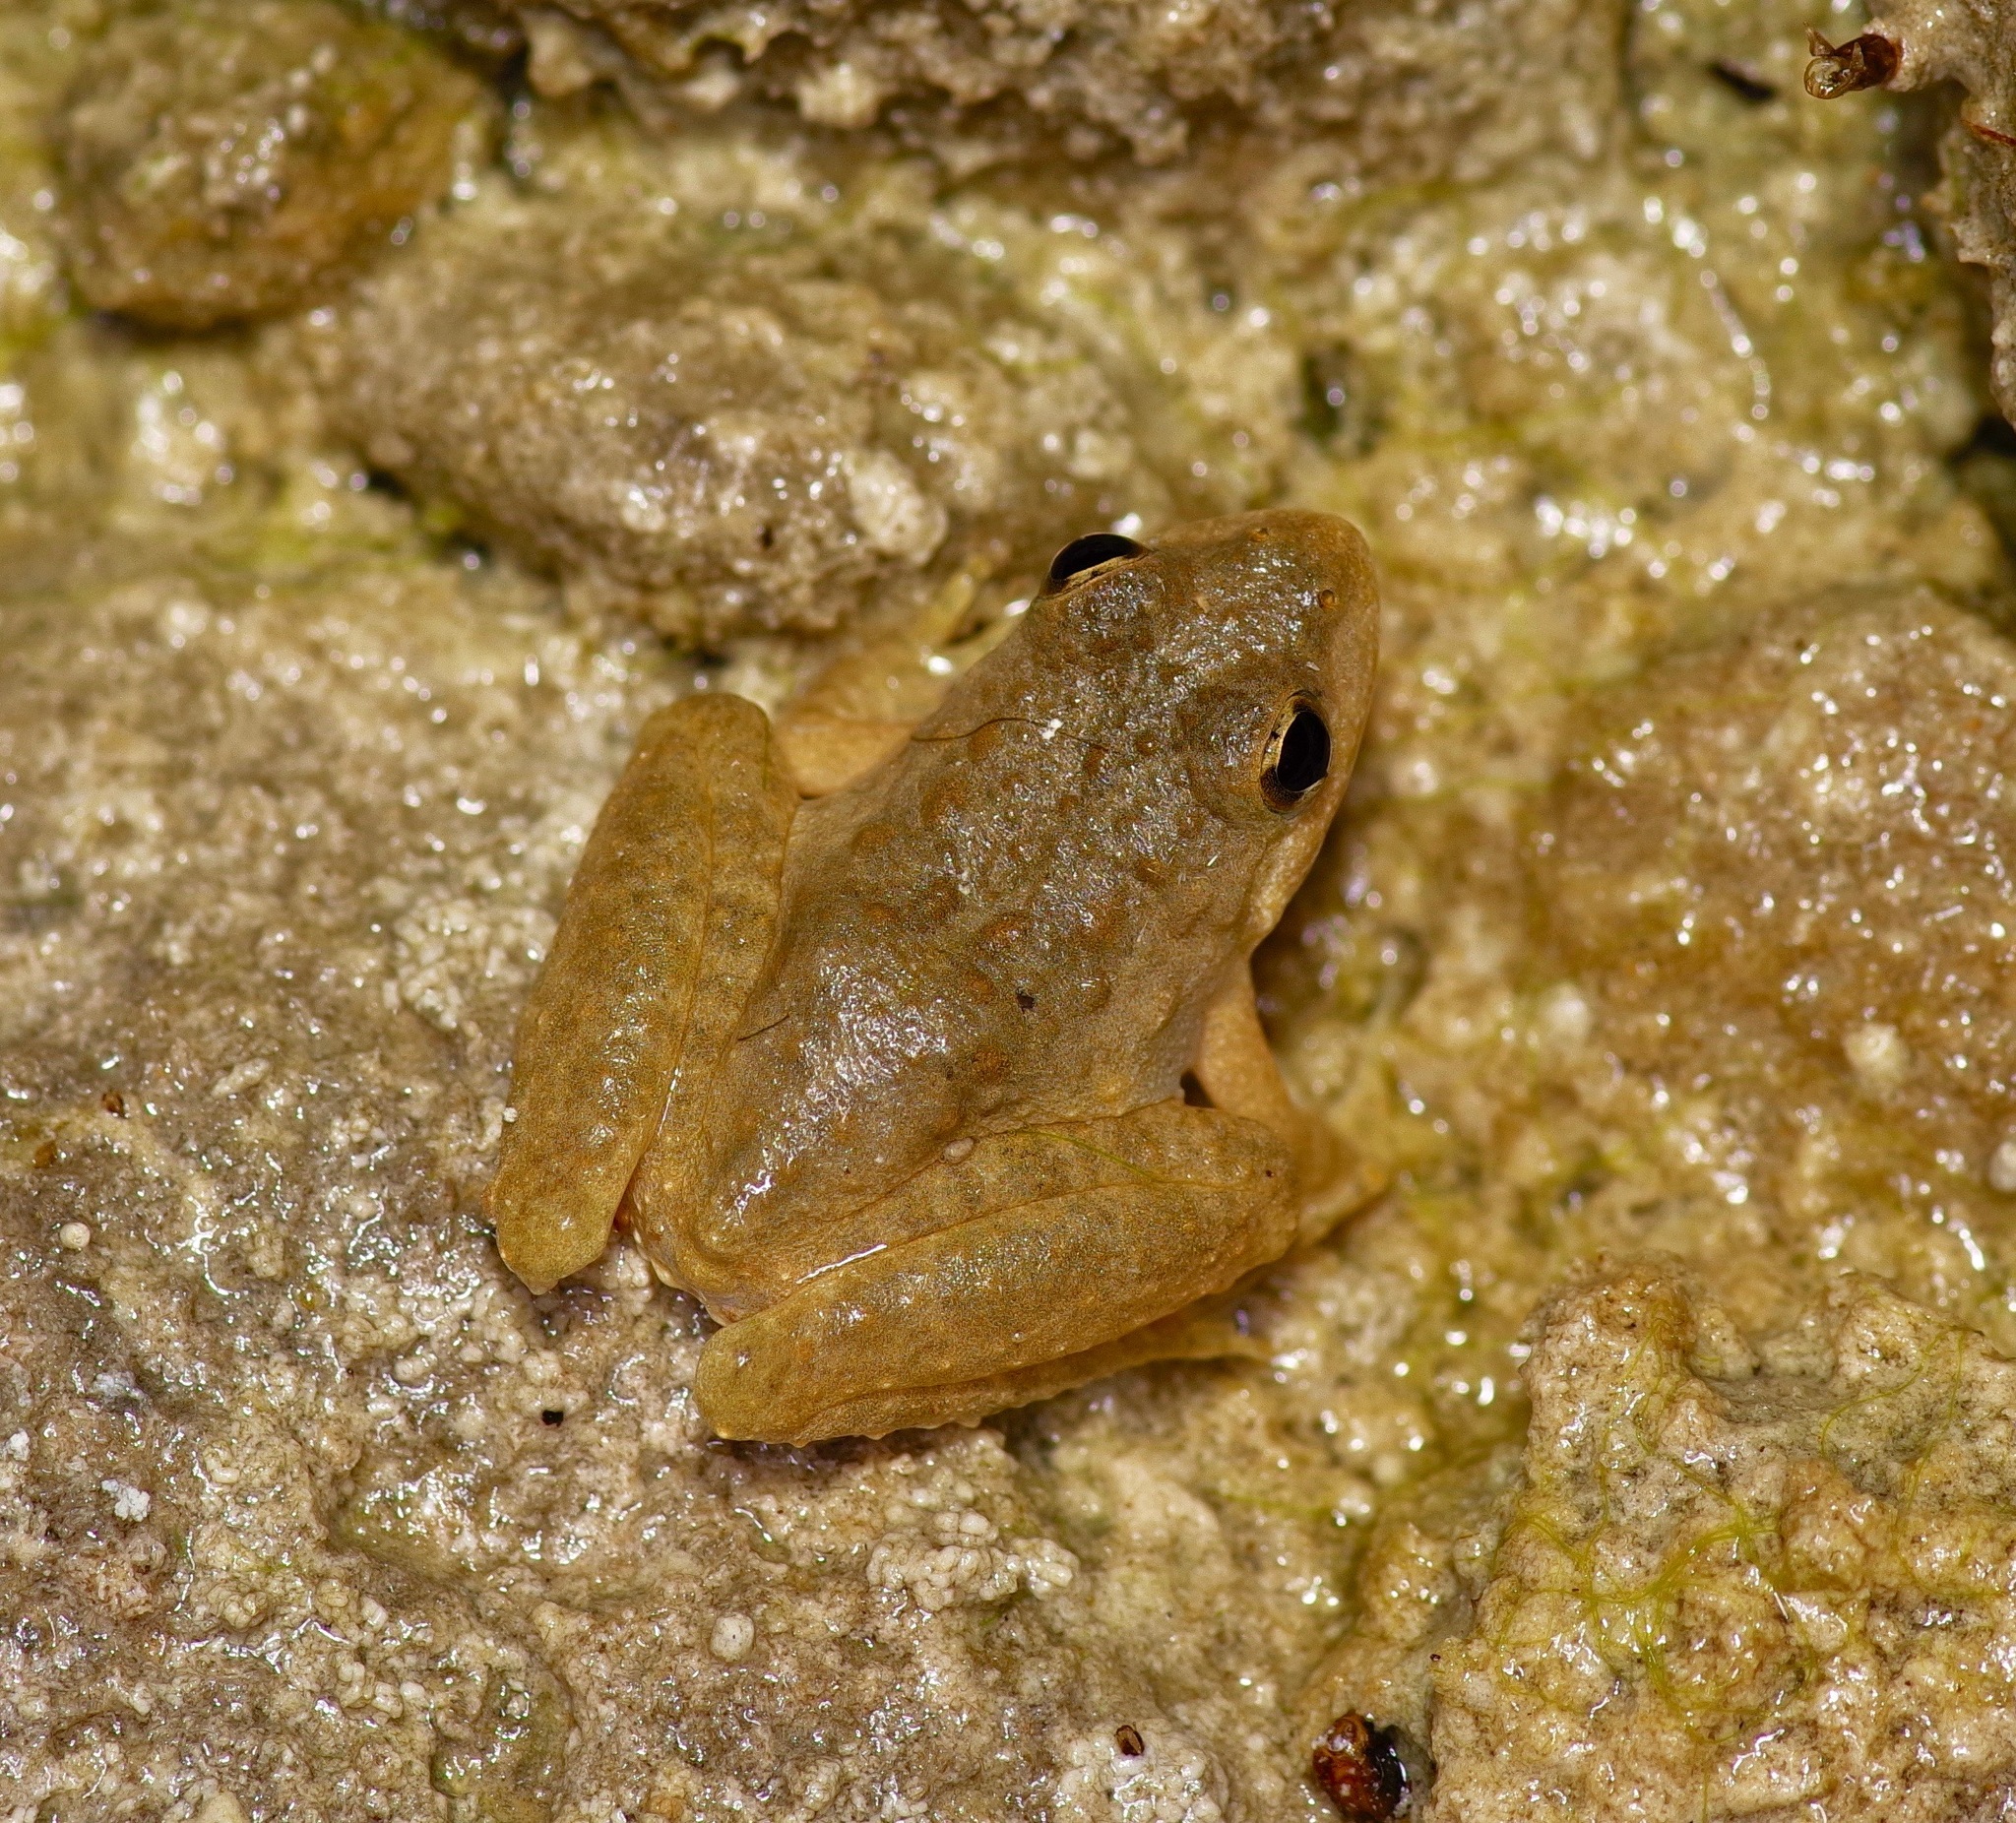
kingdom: Animalia
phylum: Chordata
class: Amphibia
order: Anura
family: Hylidae
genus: Acris
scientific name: Acris blanchardi
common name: Blanchard's cricket frog
